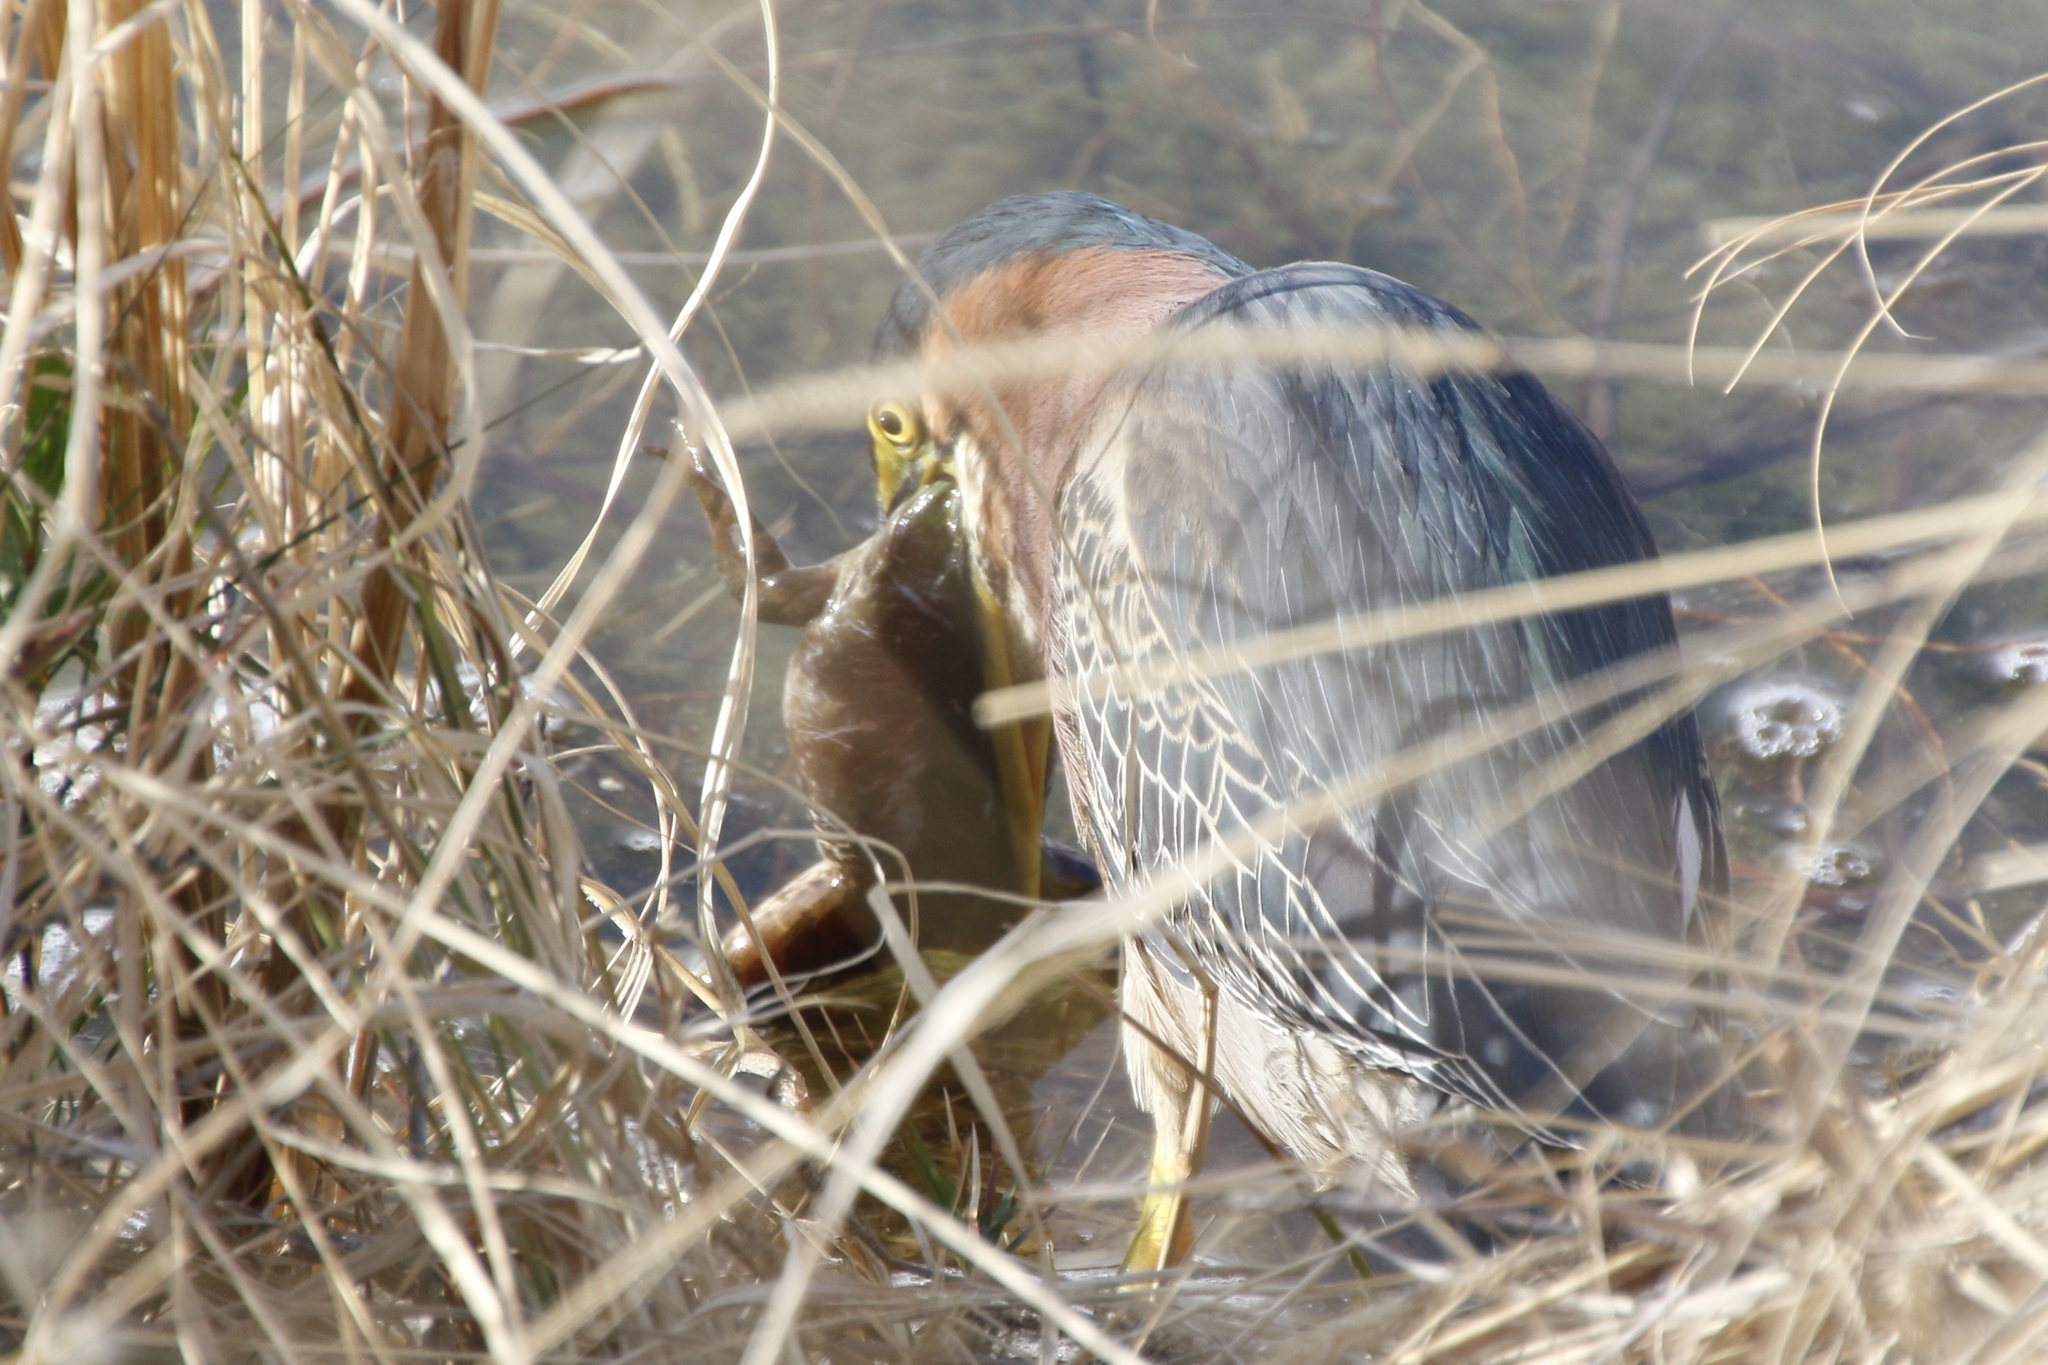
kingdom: Animalia
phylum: Chordata
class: Amphibia
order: Anura
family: Ranidae
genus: Lithobates
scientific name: Lithobates catesbeianus
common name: American bullfrog
